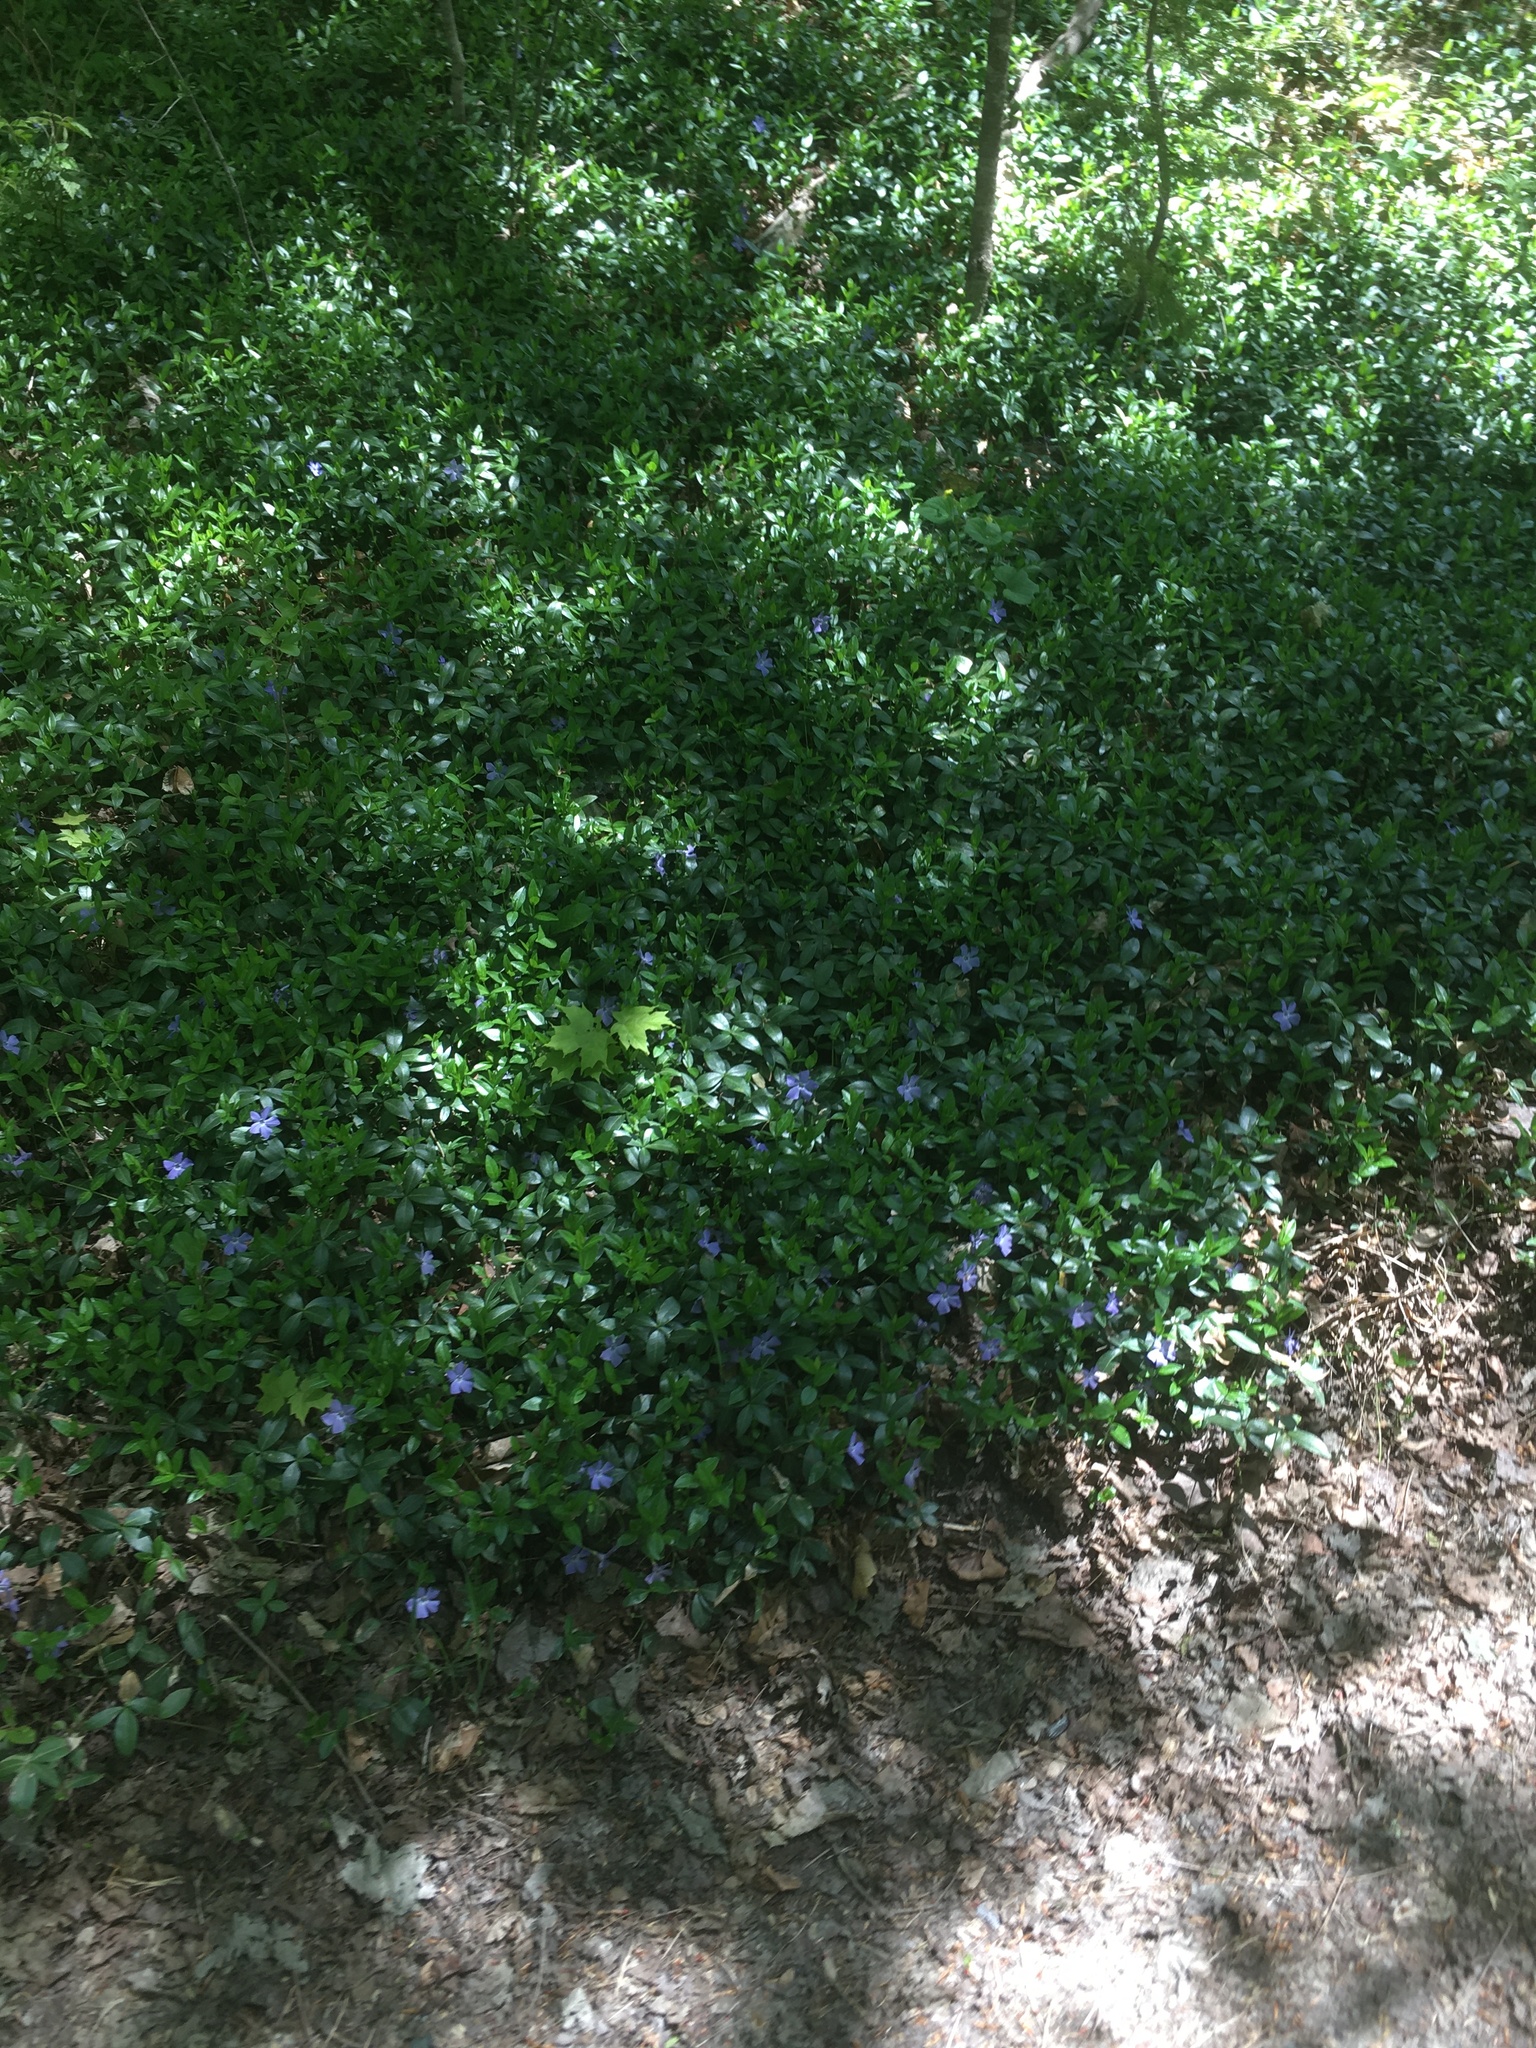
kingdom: Plantae
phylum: Tracheophyta
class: Magnoliopsida
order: Gentianales
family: Apocynaceae
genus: Vinca
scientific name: Vinca minor
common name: Lesser periwinkle
